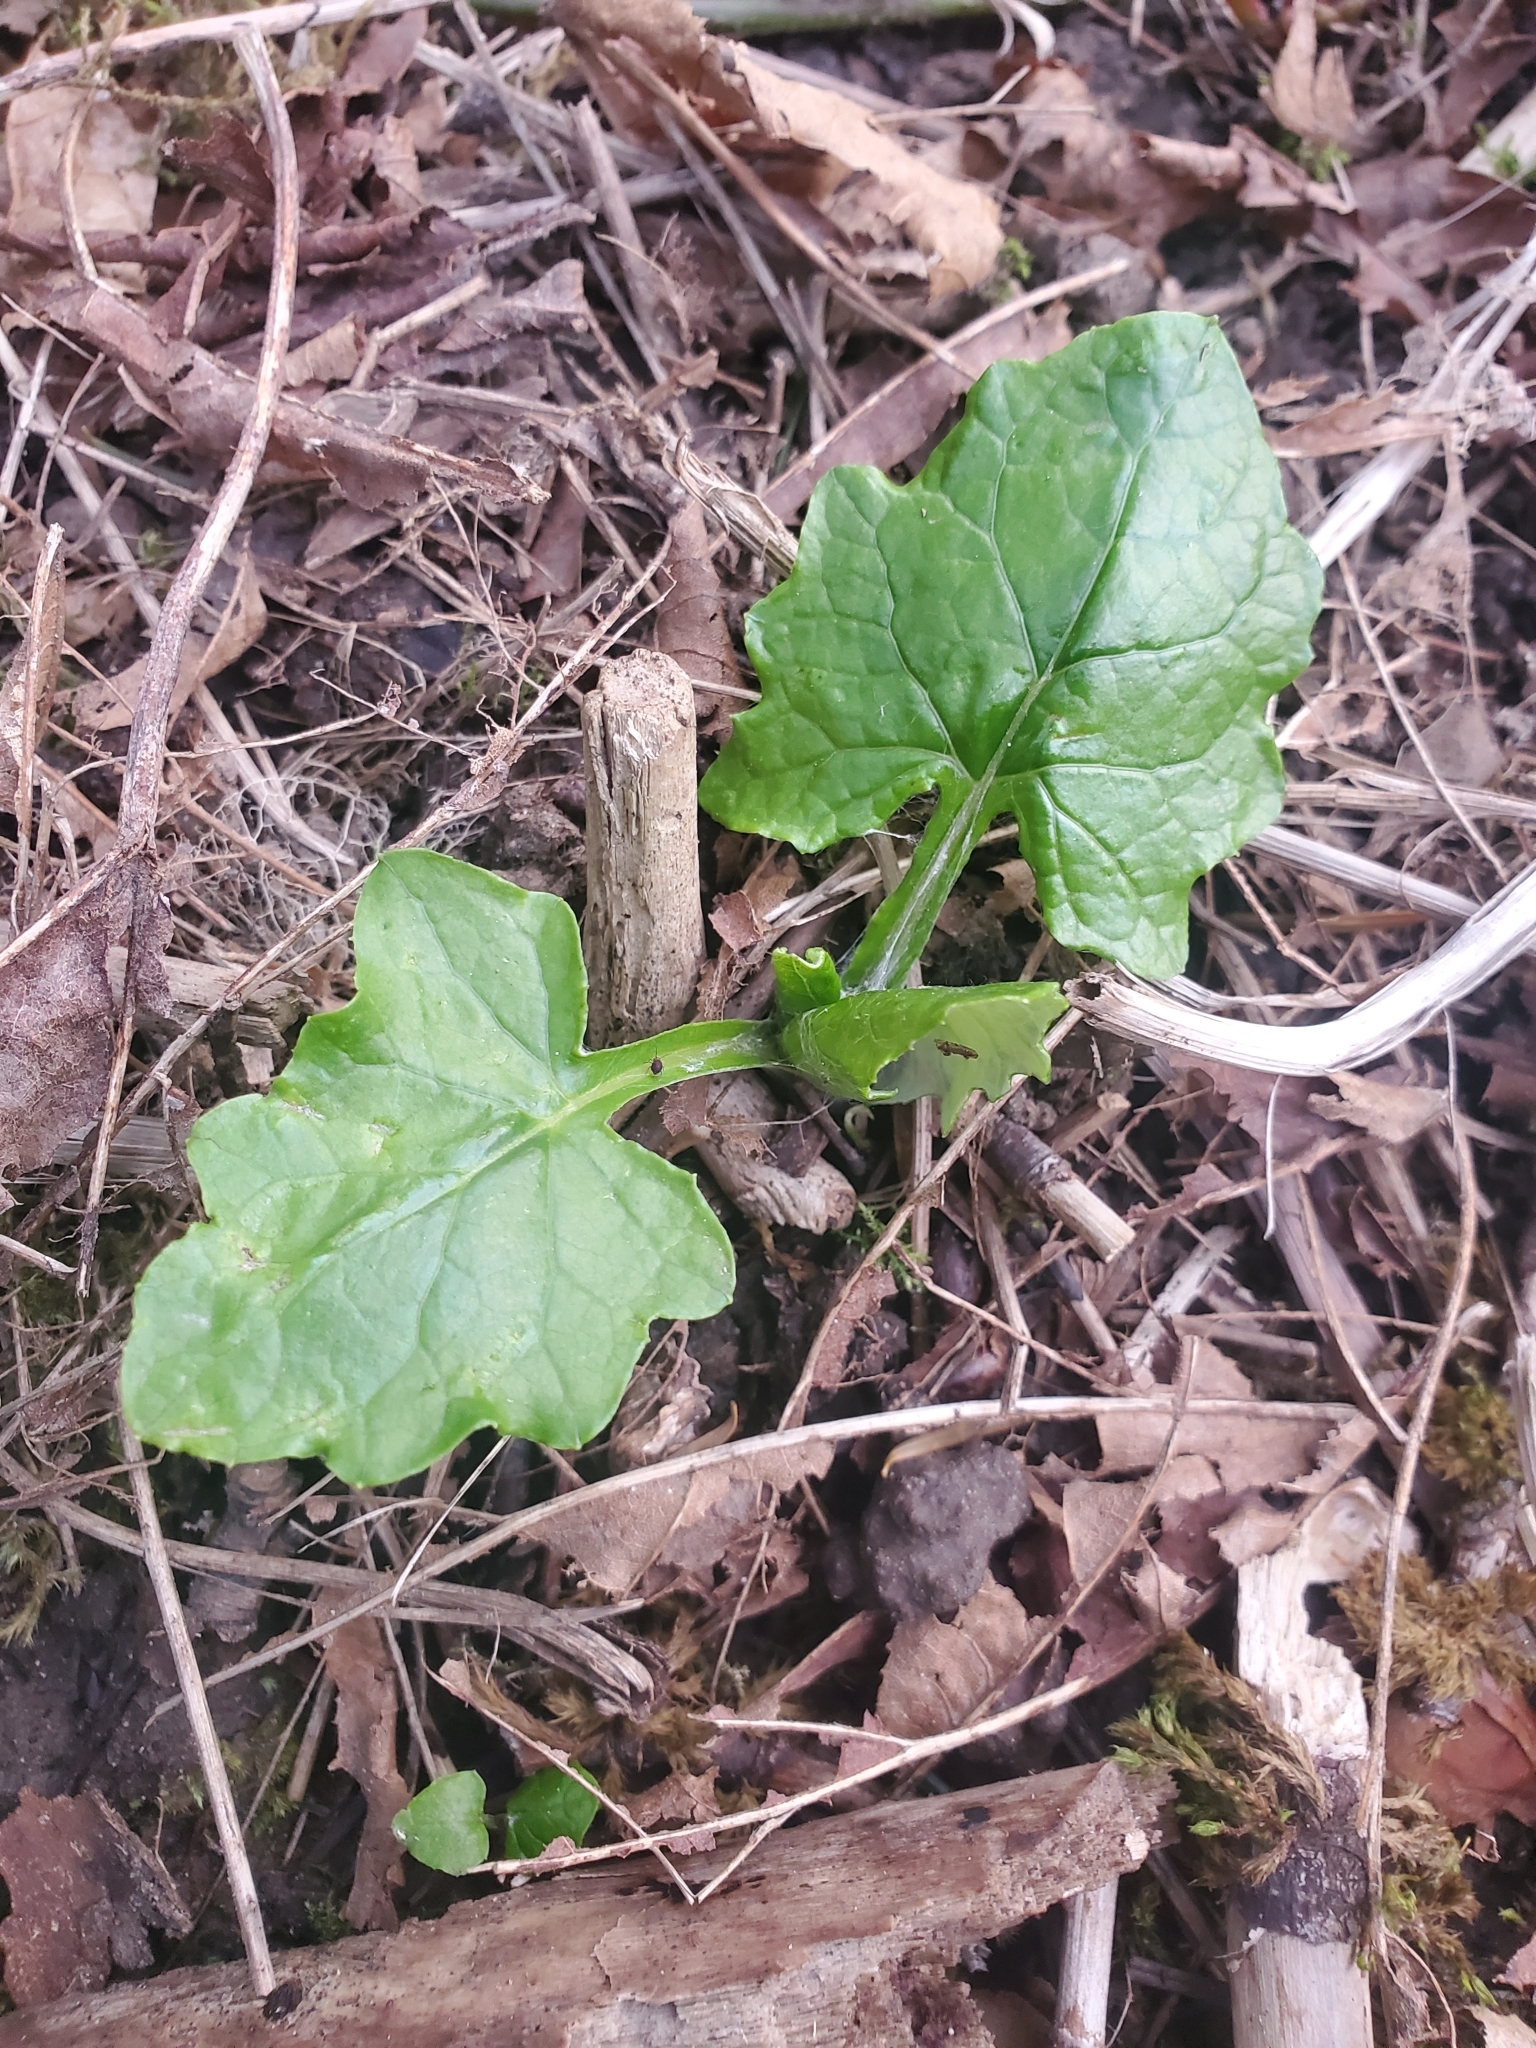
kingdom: Plantae
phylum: Tracheophyta
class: Magnoliopsida
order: Asterales
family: Asteraceae
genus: Adenocaulon
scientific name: Adenocaulon bicolor
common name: Trailplant
